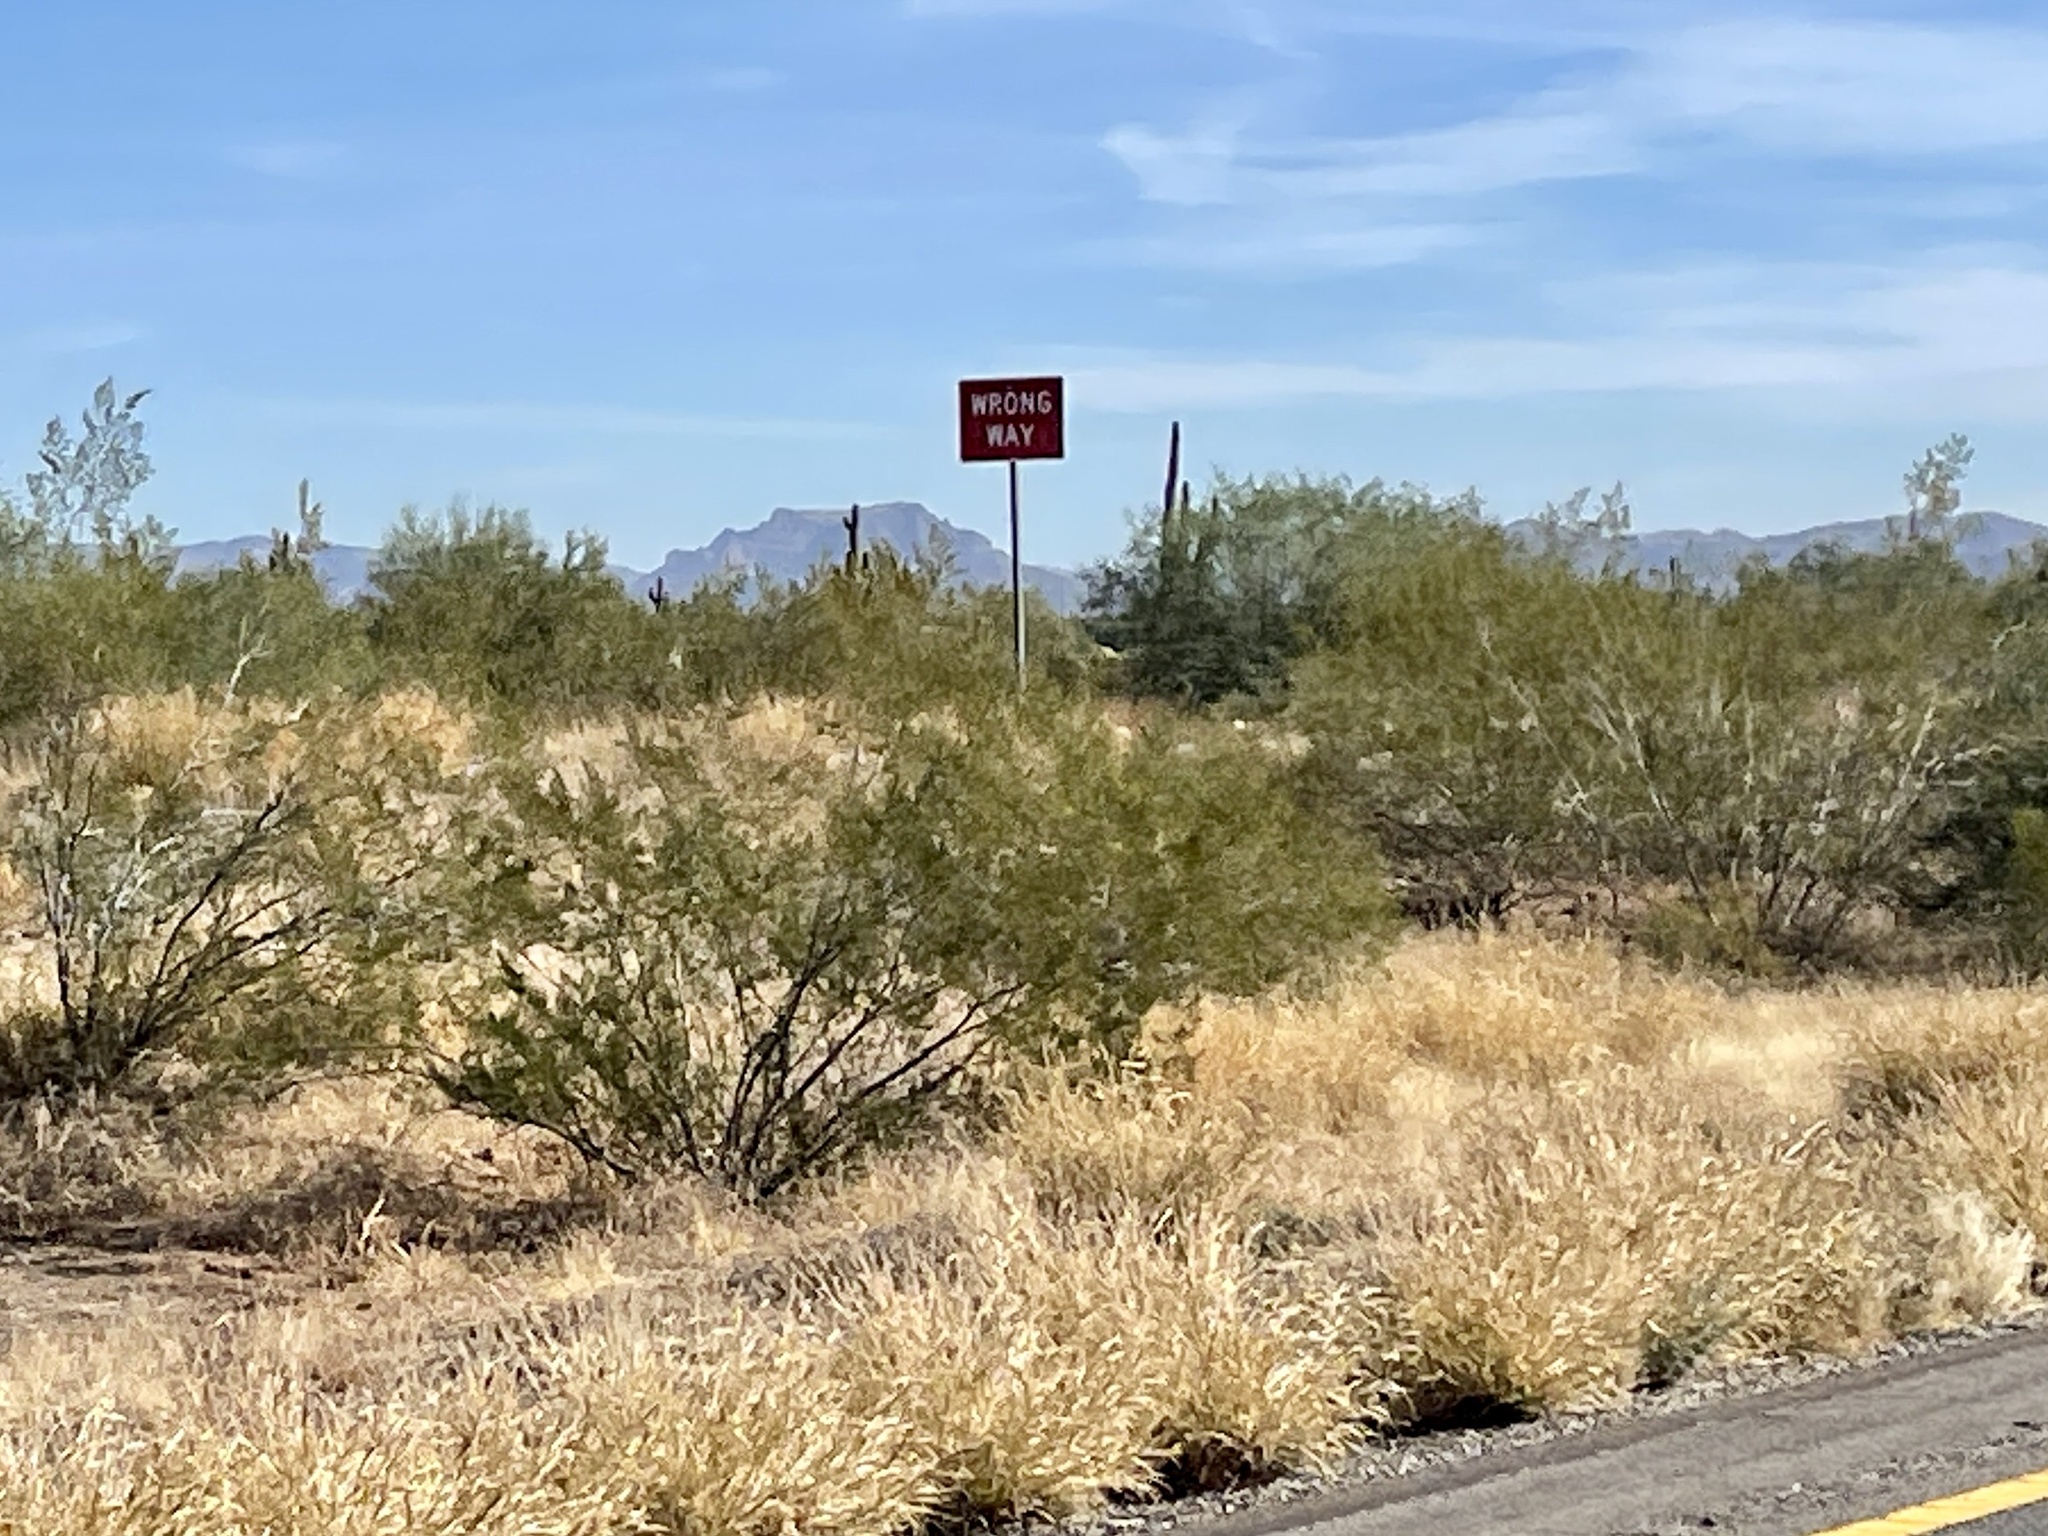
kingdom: Plantae
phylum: Tracheophyta
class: Magnoliopsida
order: Zygophyllales
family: Zygophyllaceae
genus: Larrea
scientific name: Larrea tridentata
